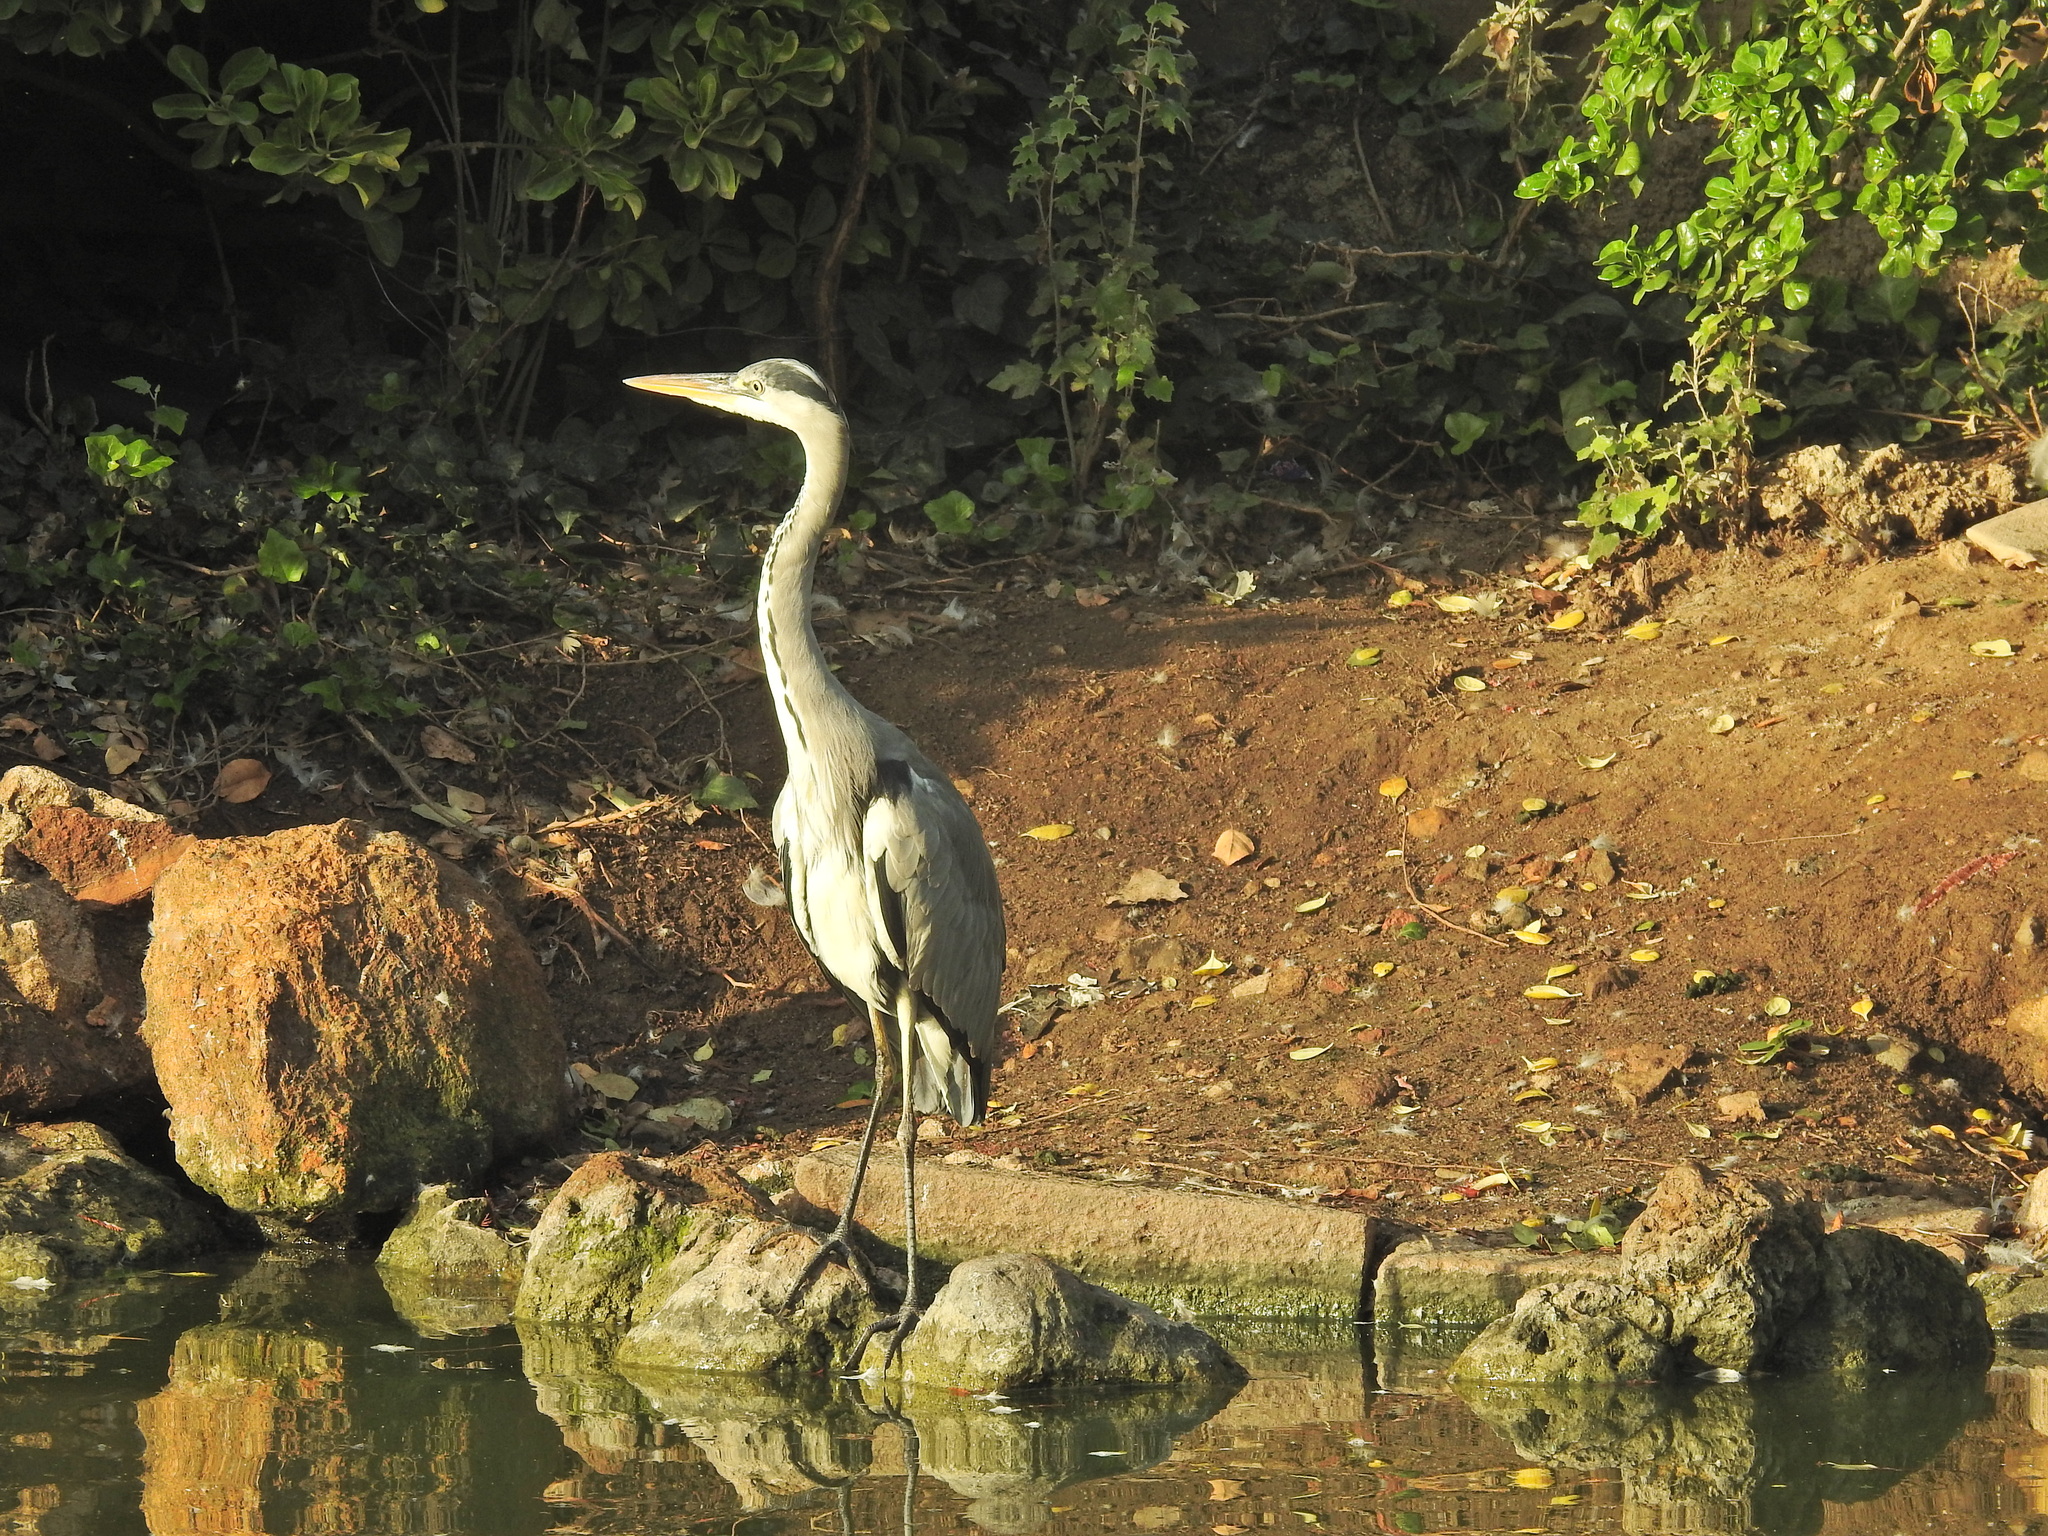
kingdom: Animalia
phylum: Chordata
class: Aves
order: Pelecaniformes
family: Ardeidae
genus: Ardea
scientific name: Ardea cinerea
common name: Grey heron
